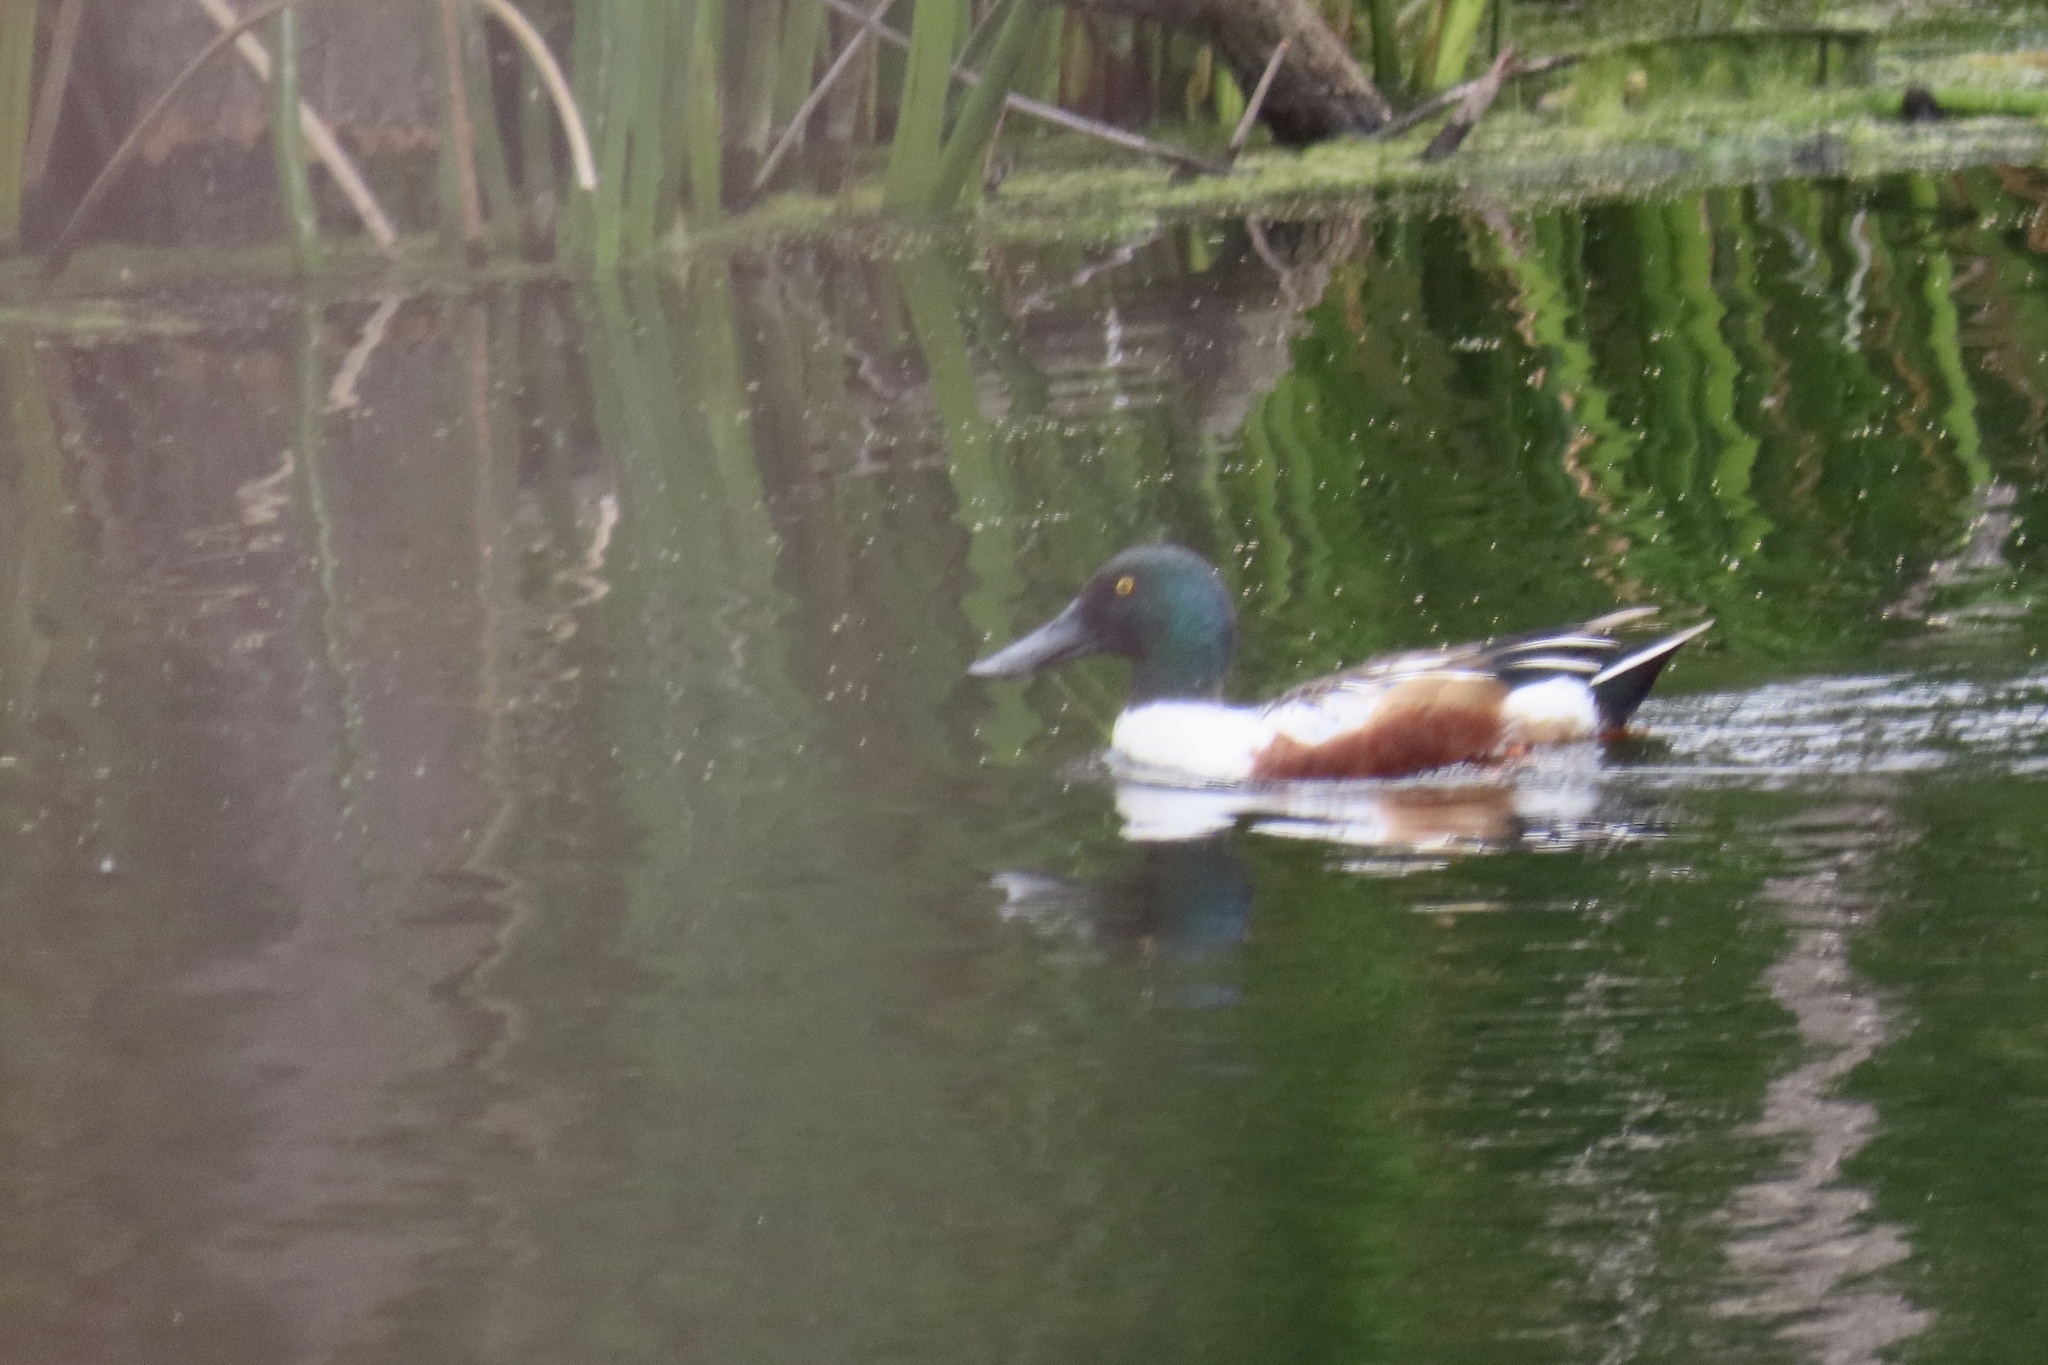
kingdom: Animalia
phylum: Chordata
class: Aves
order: Anseriformes
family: Anatidae
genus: Spatula
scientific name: Spatula clypeata
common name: Northern shoveler
